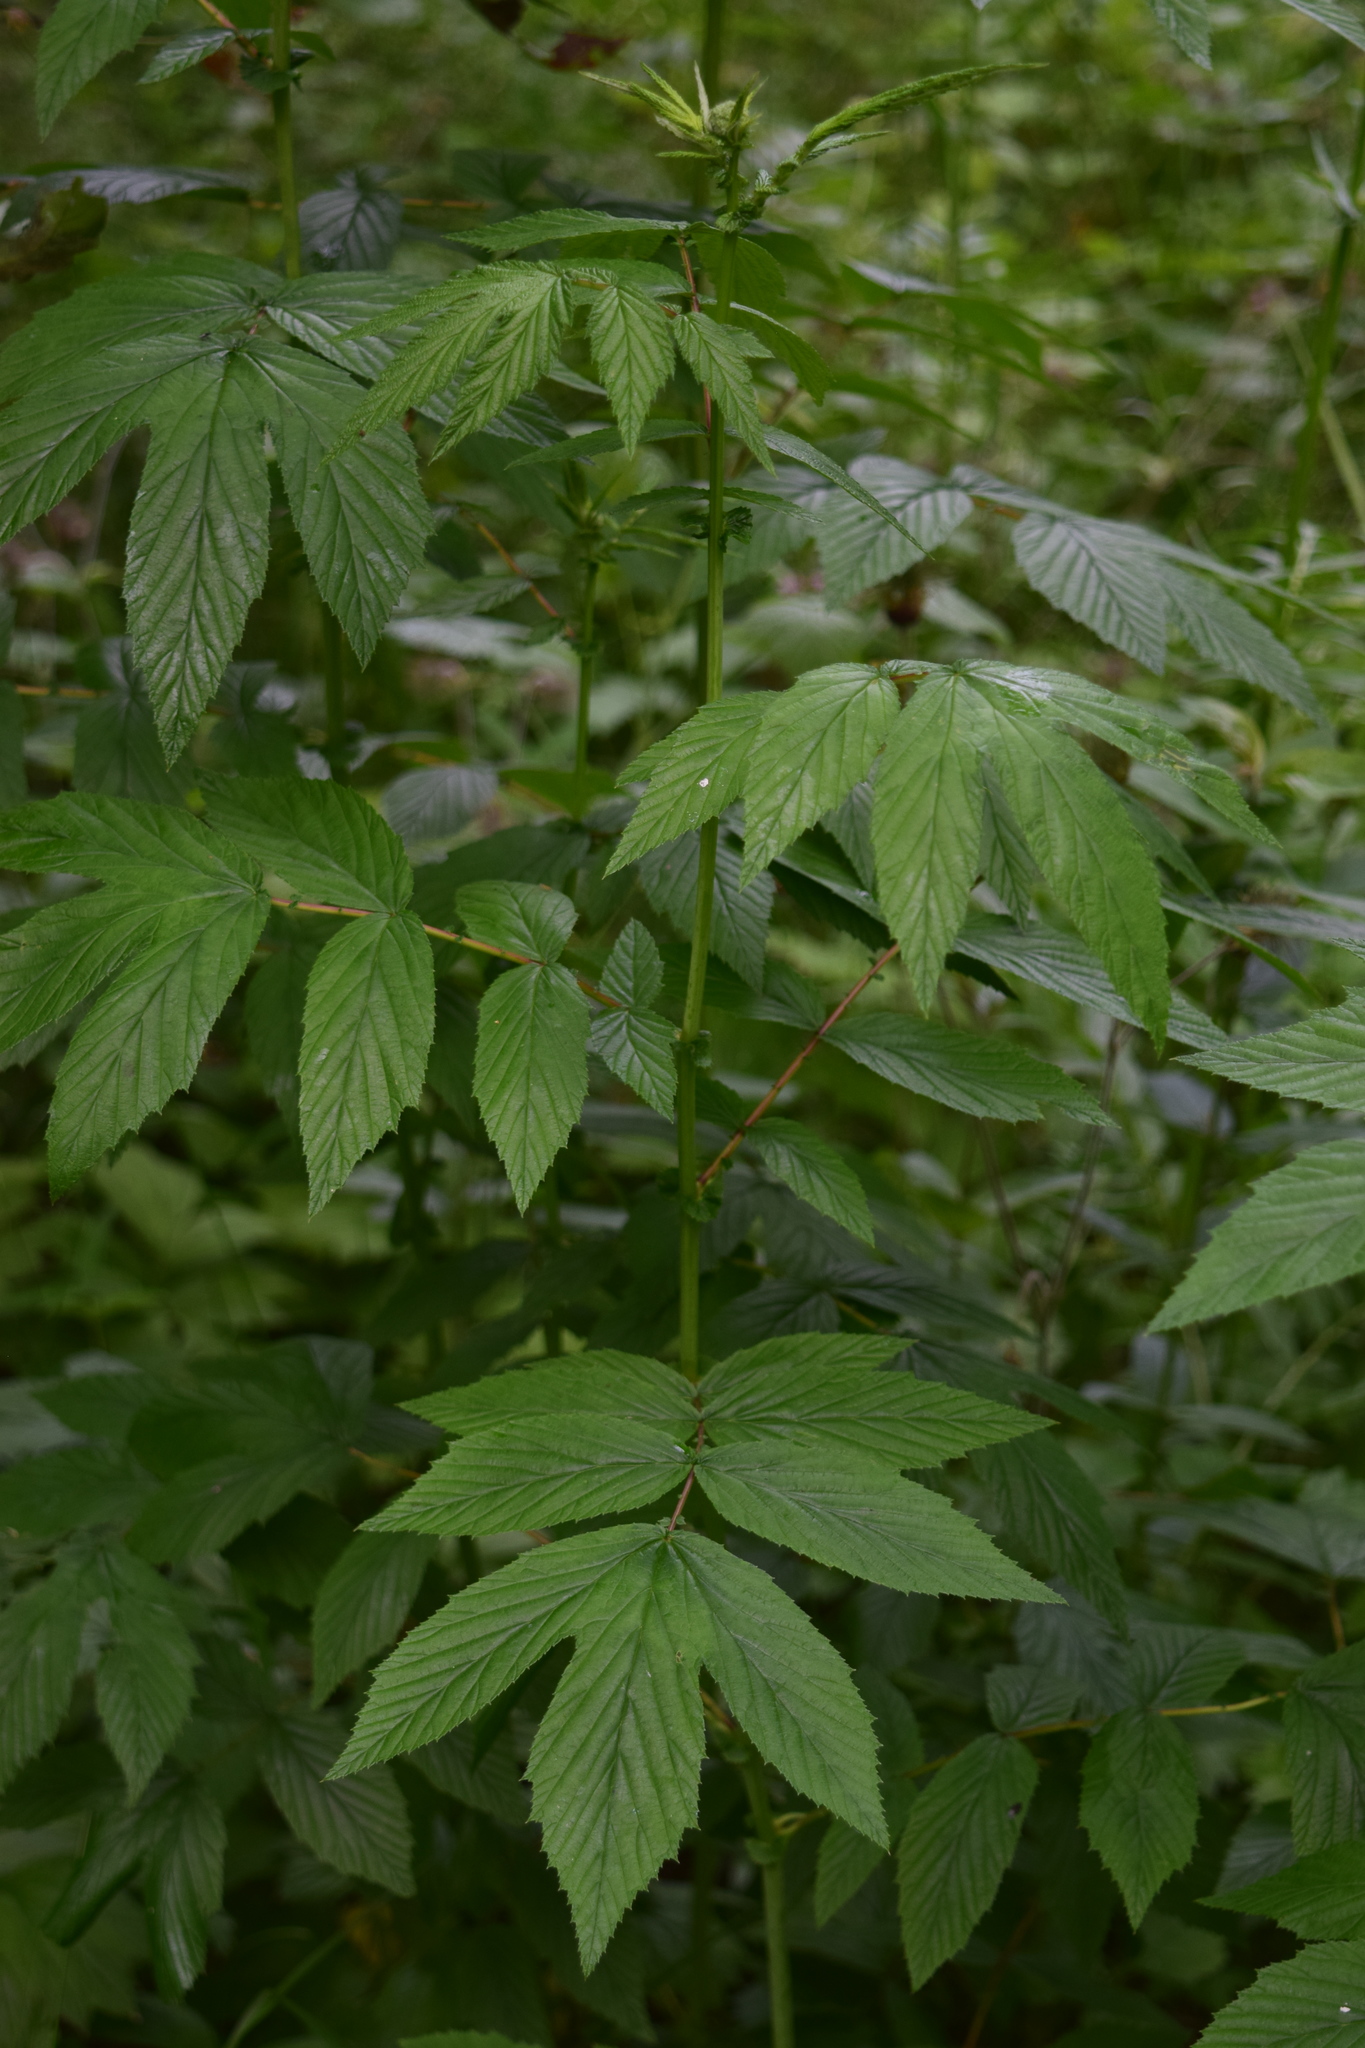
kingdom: Plantae
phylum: Tracheophyta
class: Magnoliopsida
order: Rosales
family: Rosaceae
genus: Filipendula
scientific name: Filipendula ulmaria
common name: Meadowsweet
